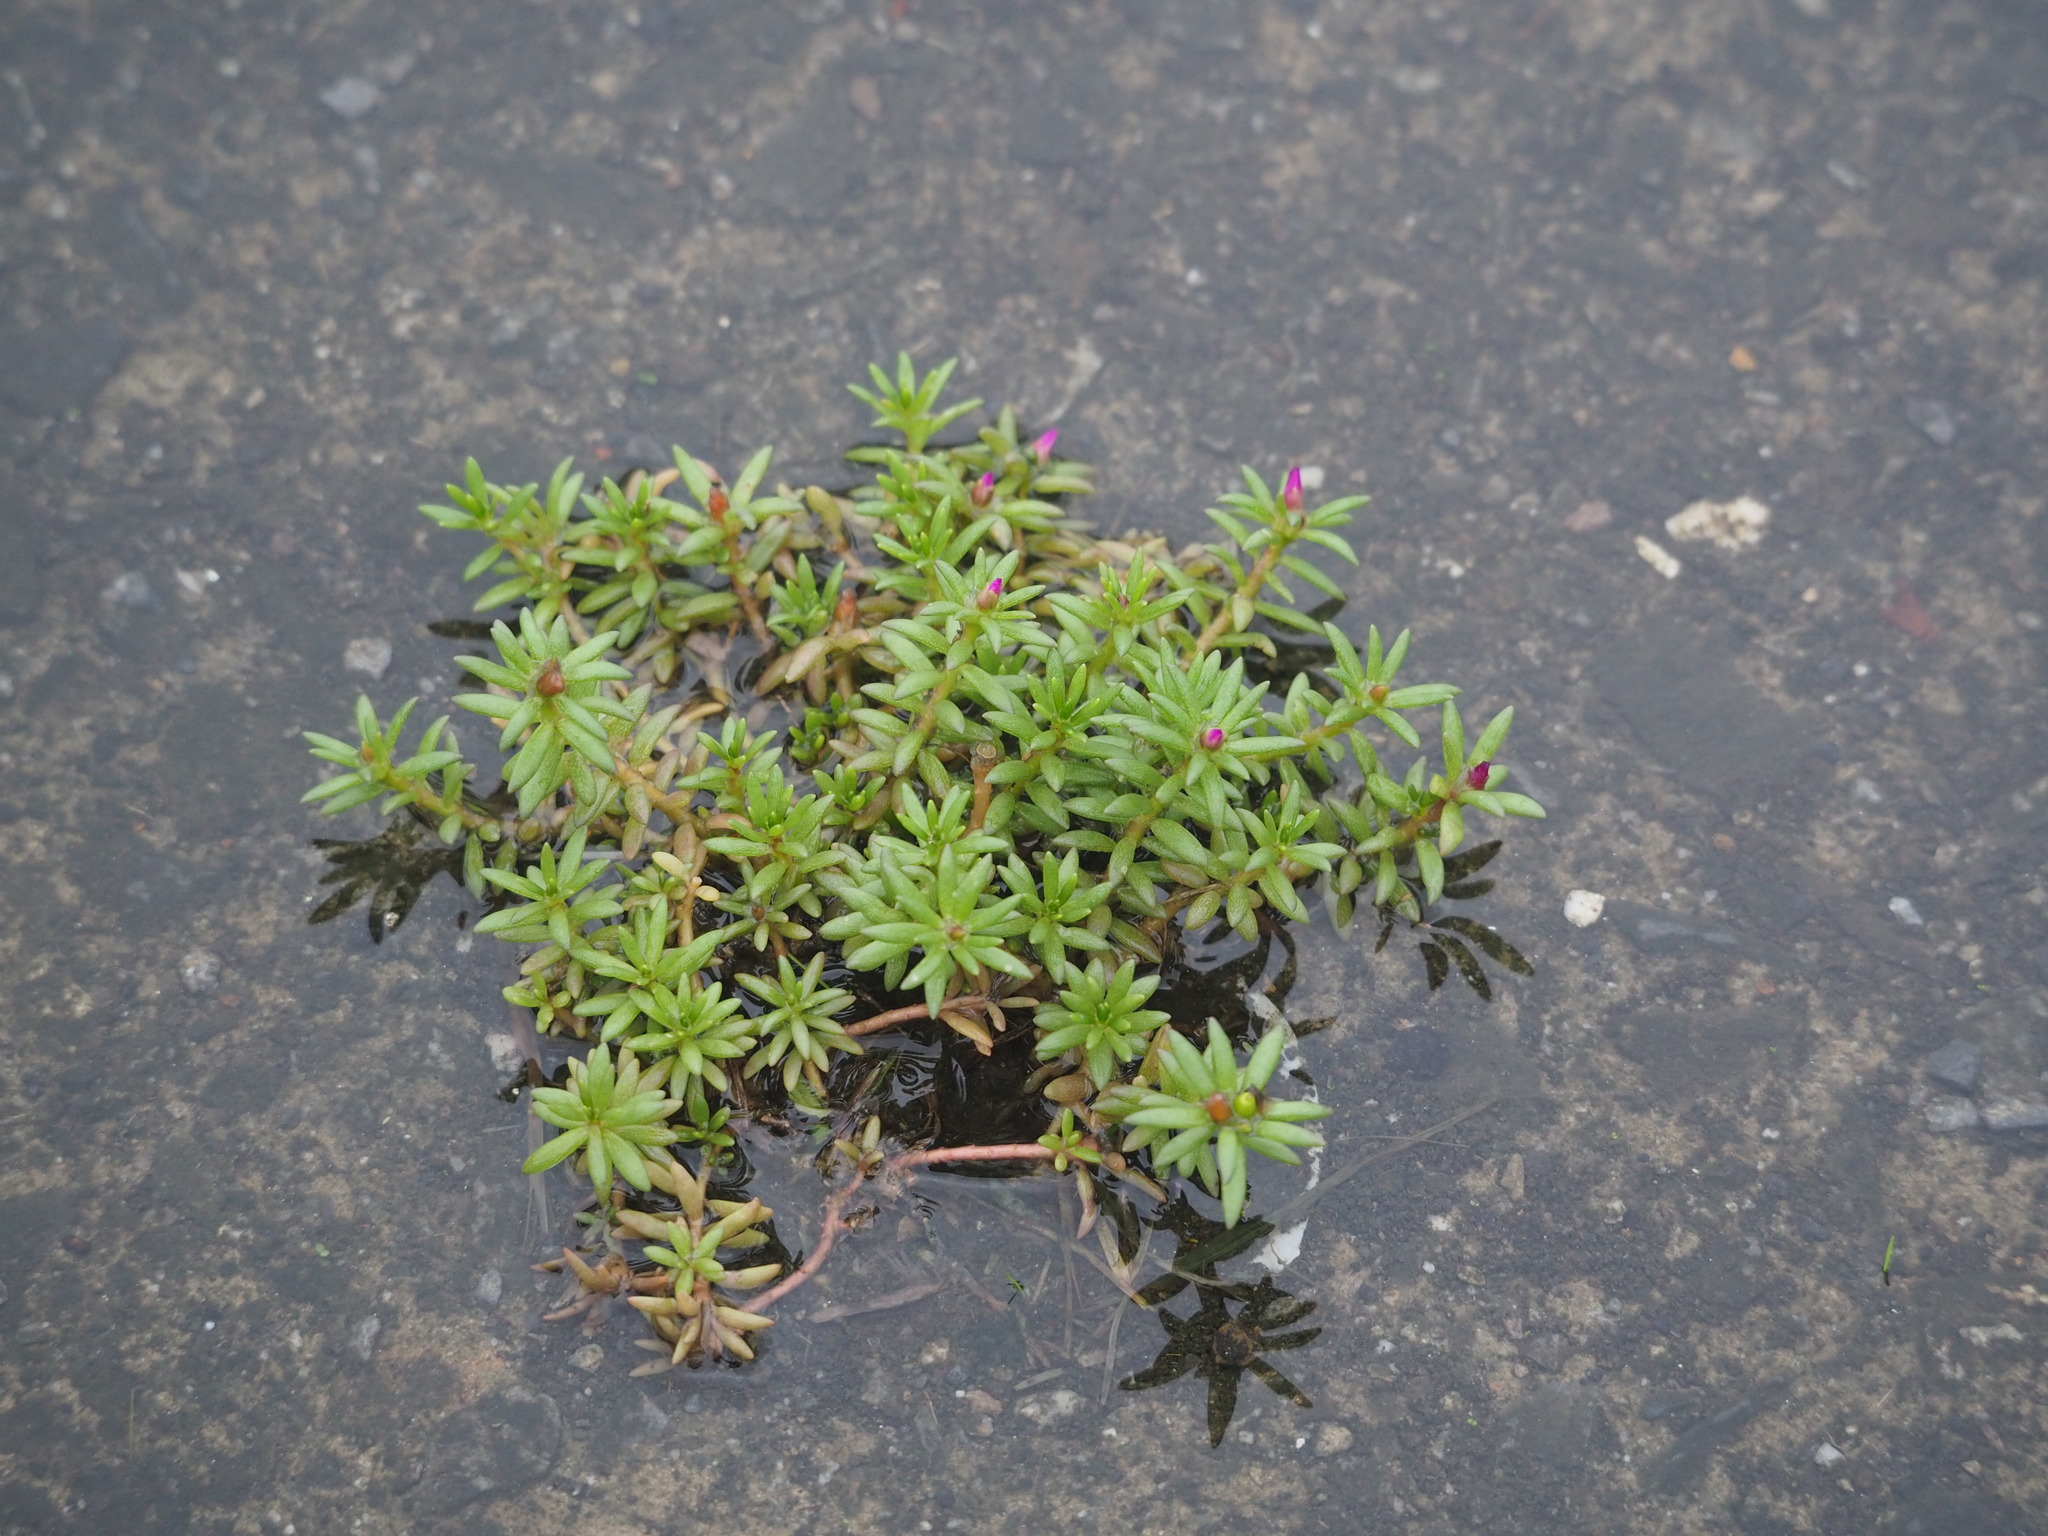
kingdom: Plantae
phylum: Tracheophyta
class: Magnoliopsida
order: Caryophyllales
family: Portulacaceae
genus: Portulaca
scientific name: Portulaca pilosa
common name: Kiss me quick
